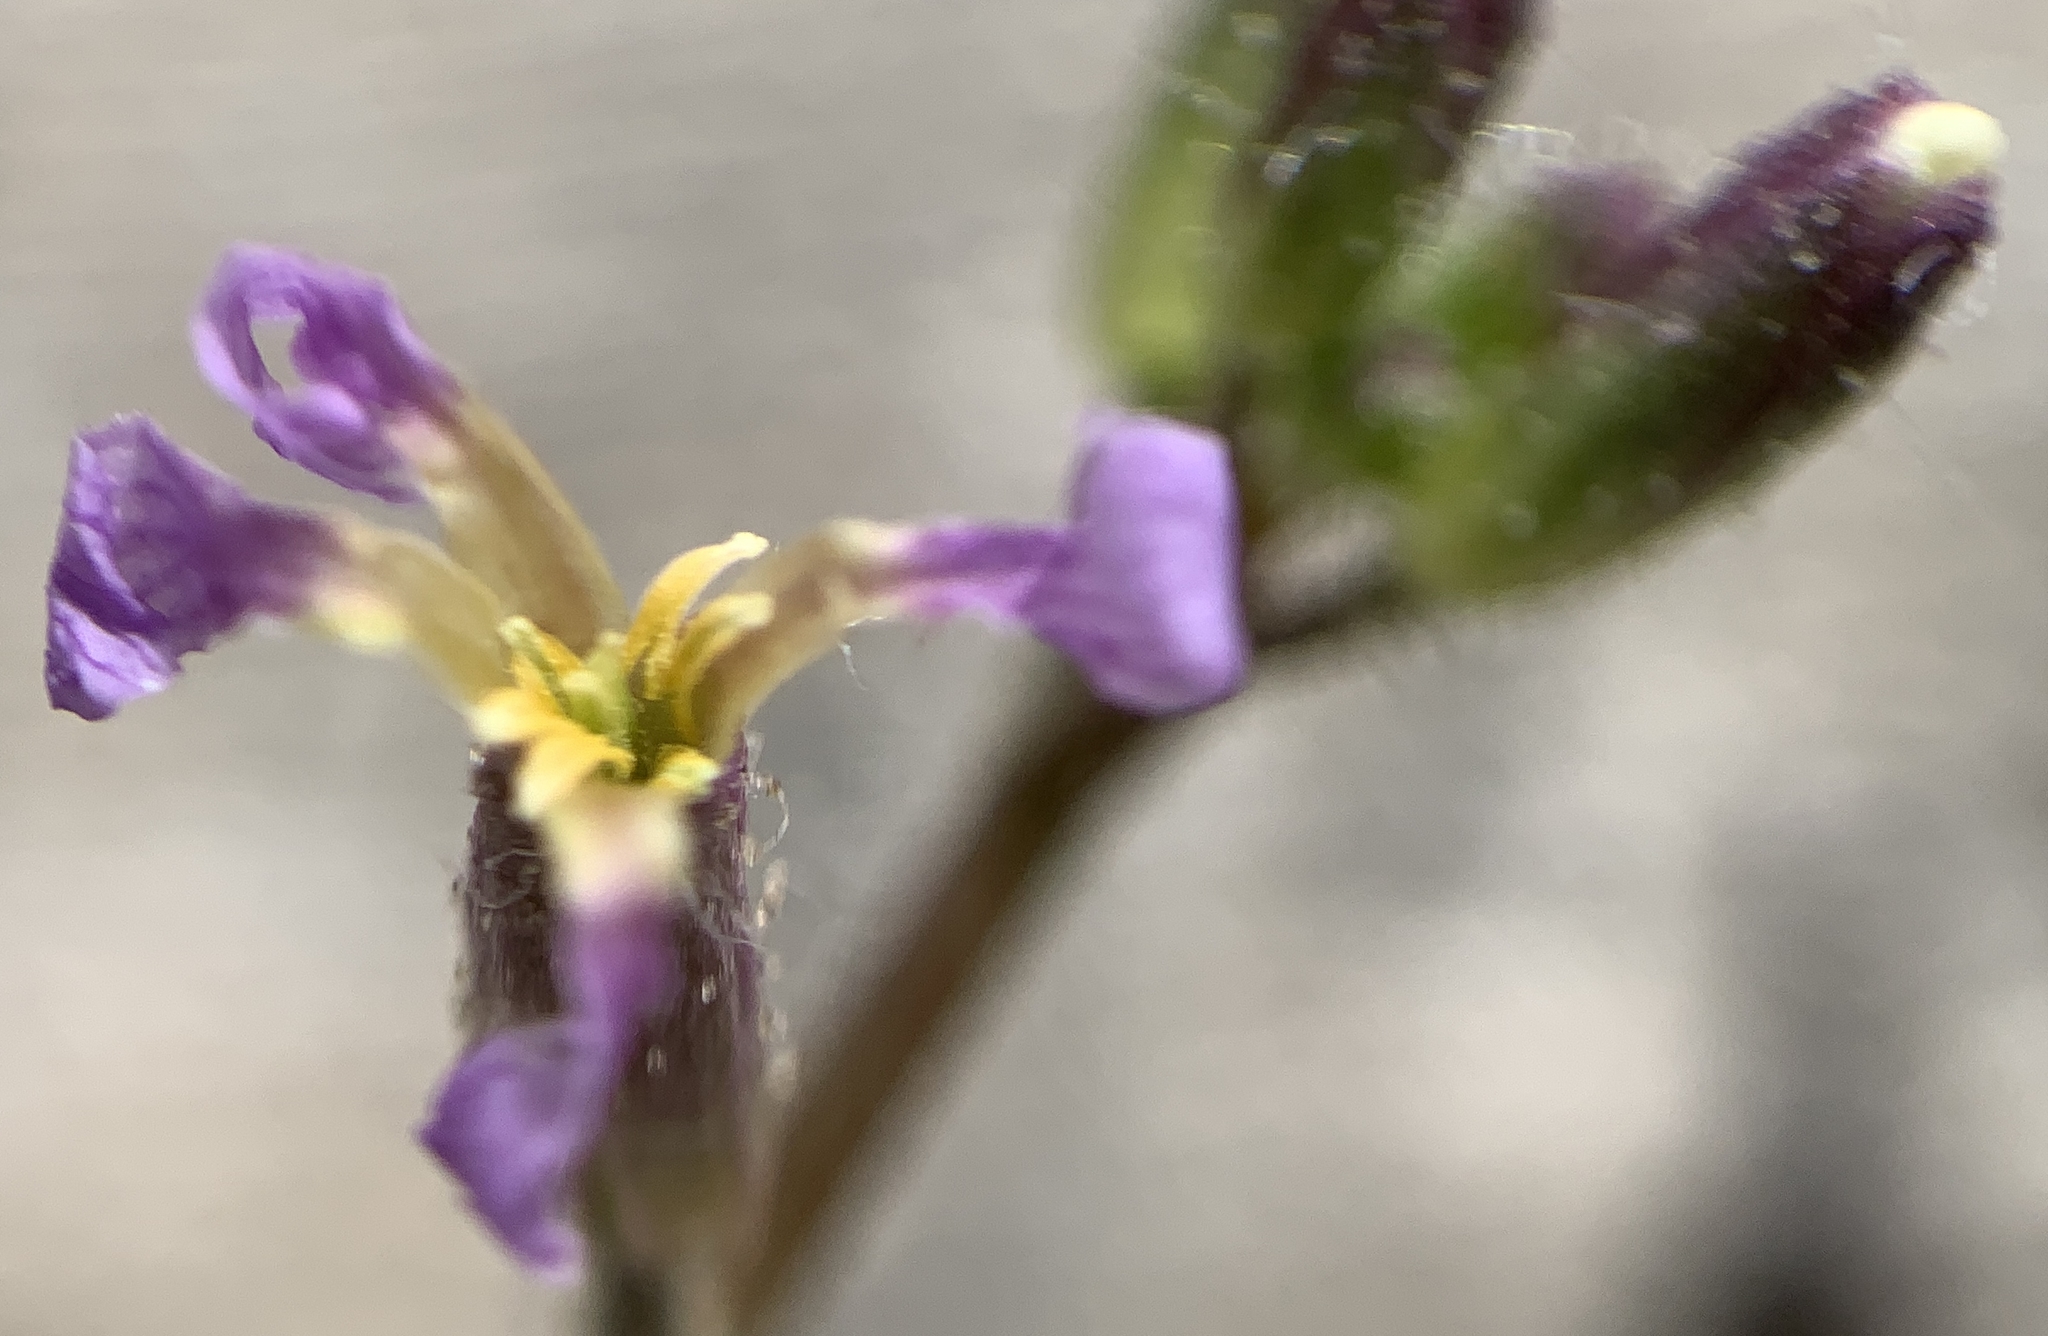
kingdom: Plantae
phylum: Tracheophyta
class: Magnoliopsida
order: Brassicales
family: Brassicaceae
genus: Chorispora
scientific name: Chorispora tenella
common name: Crossflower
